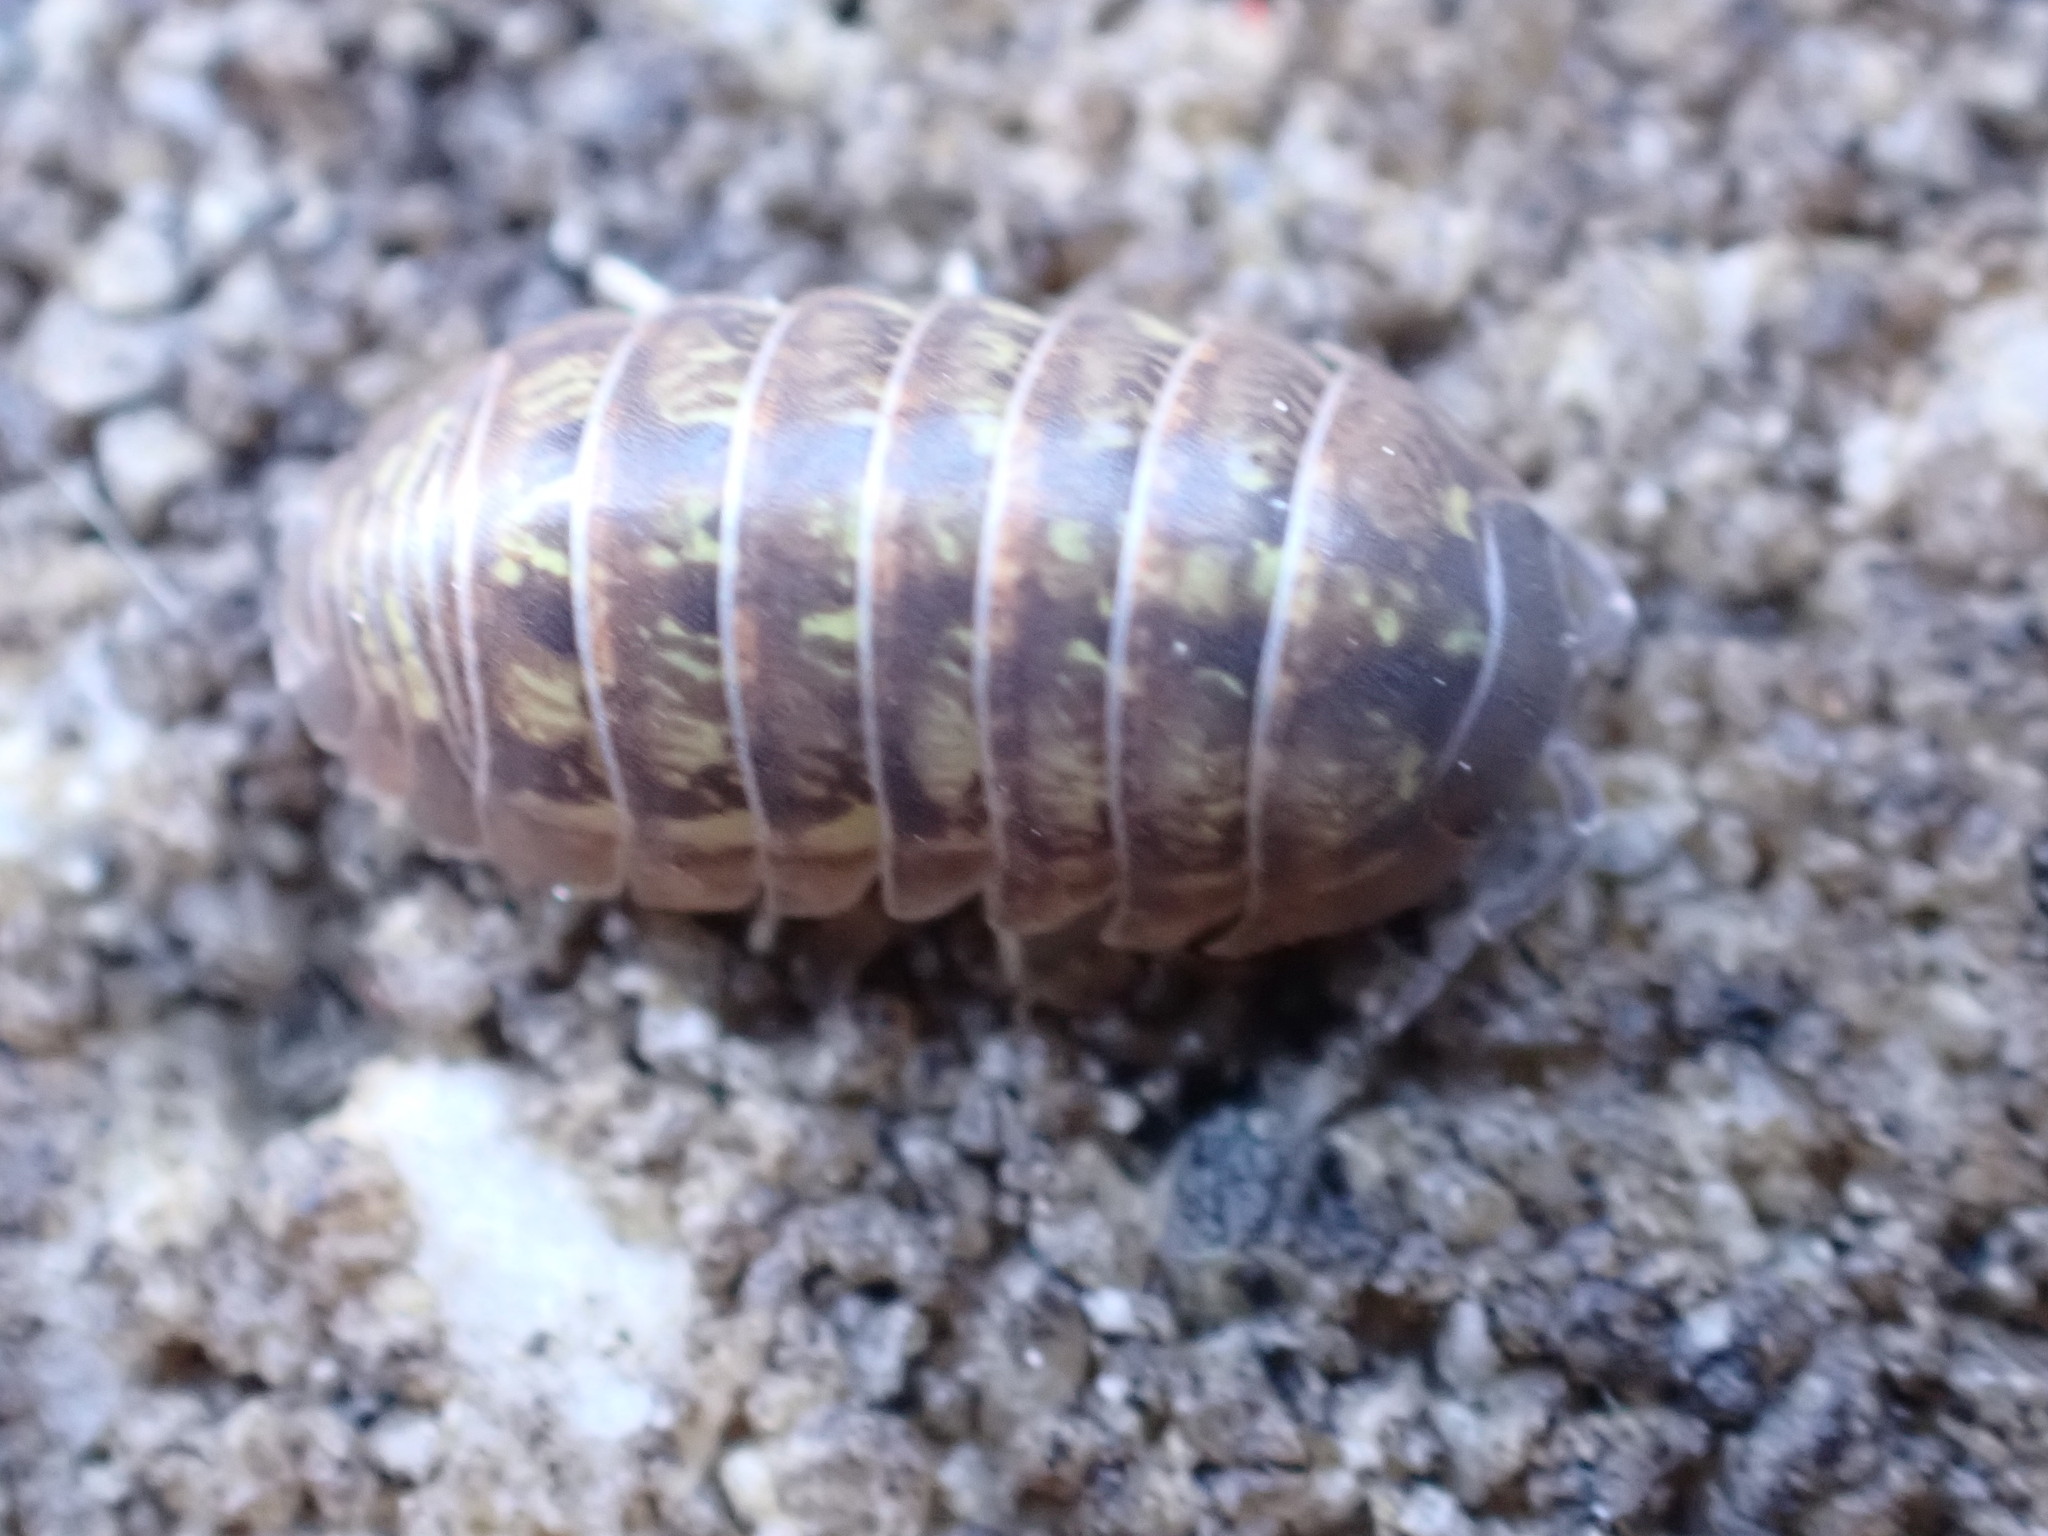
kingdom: Animalia
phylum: Arthropoda
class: Malacostraca
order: Isopoda
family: Armadillidiidae
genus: Armadillidium
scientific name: Armadillidium vulgare
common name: Common pill woodlouse
